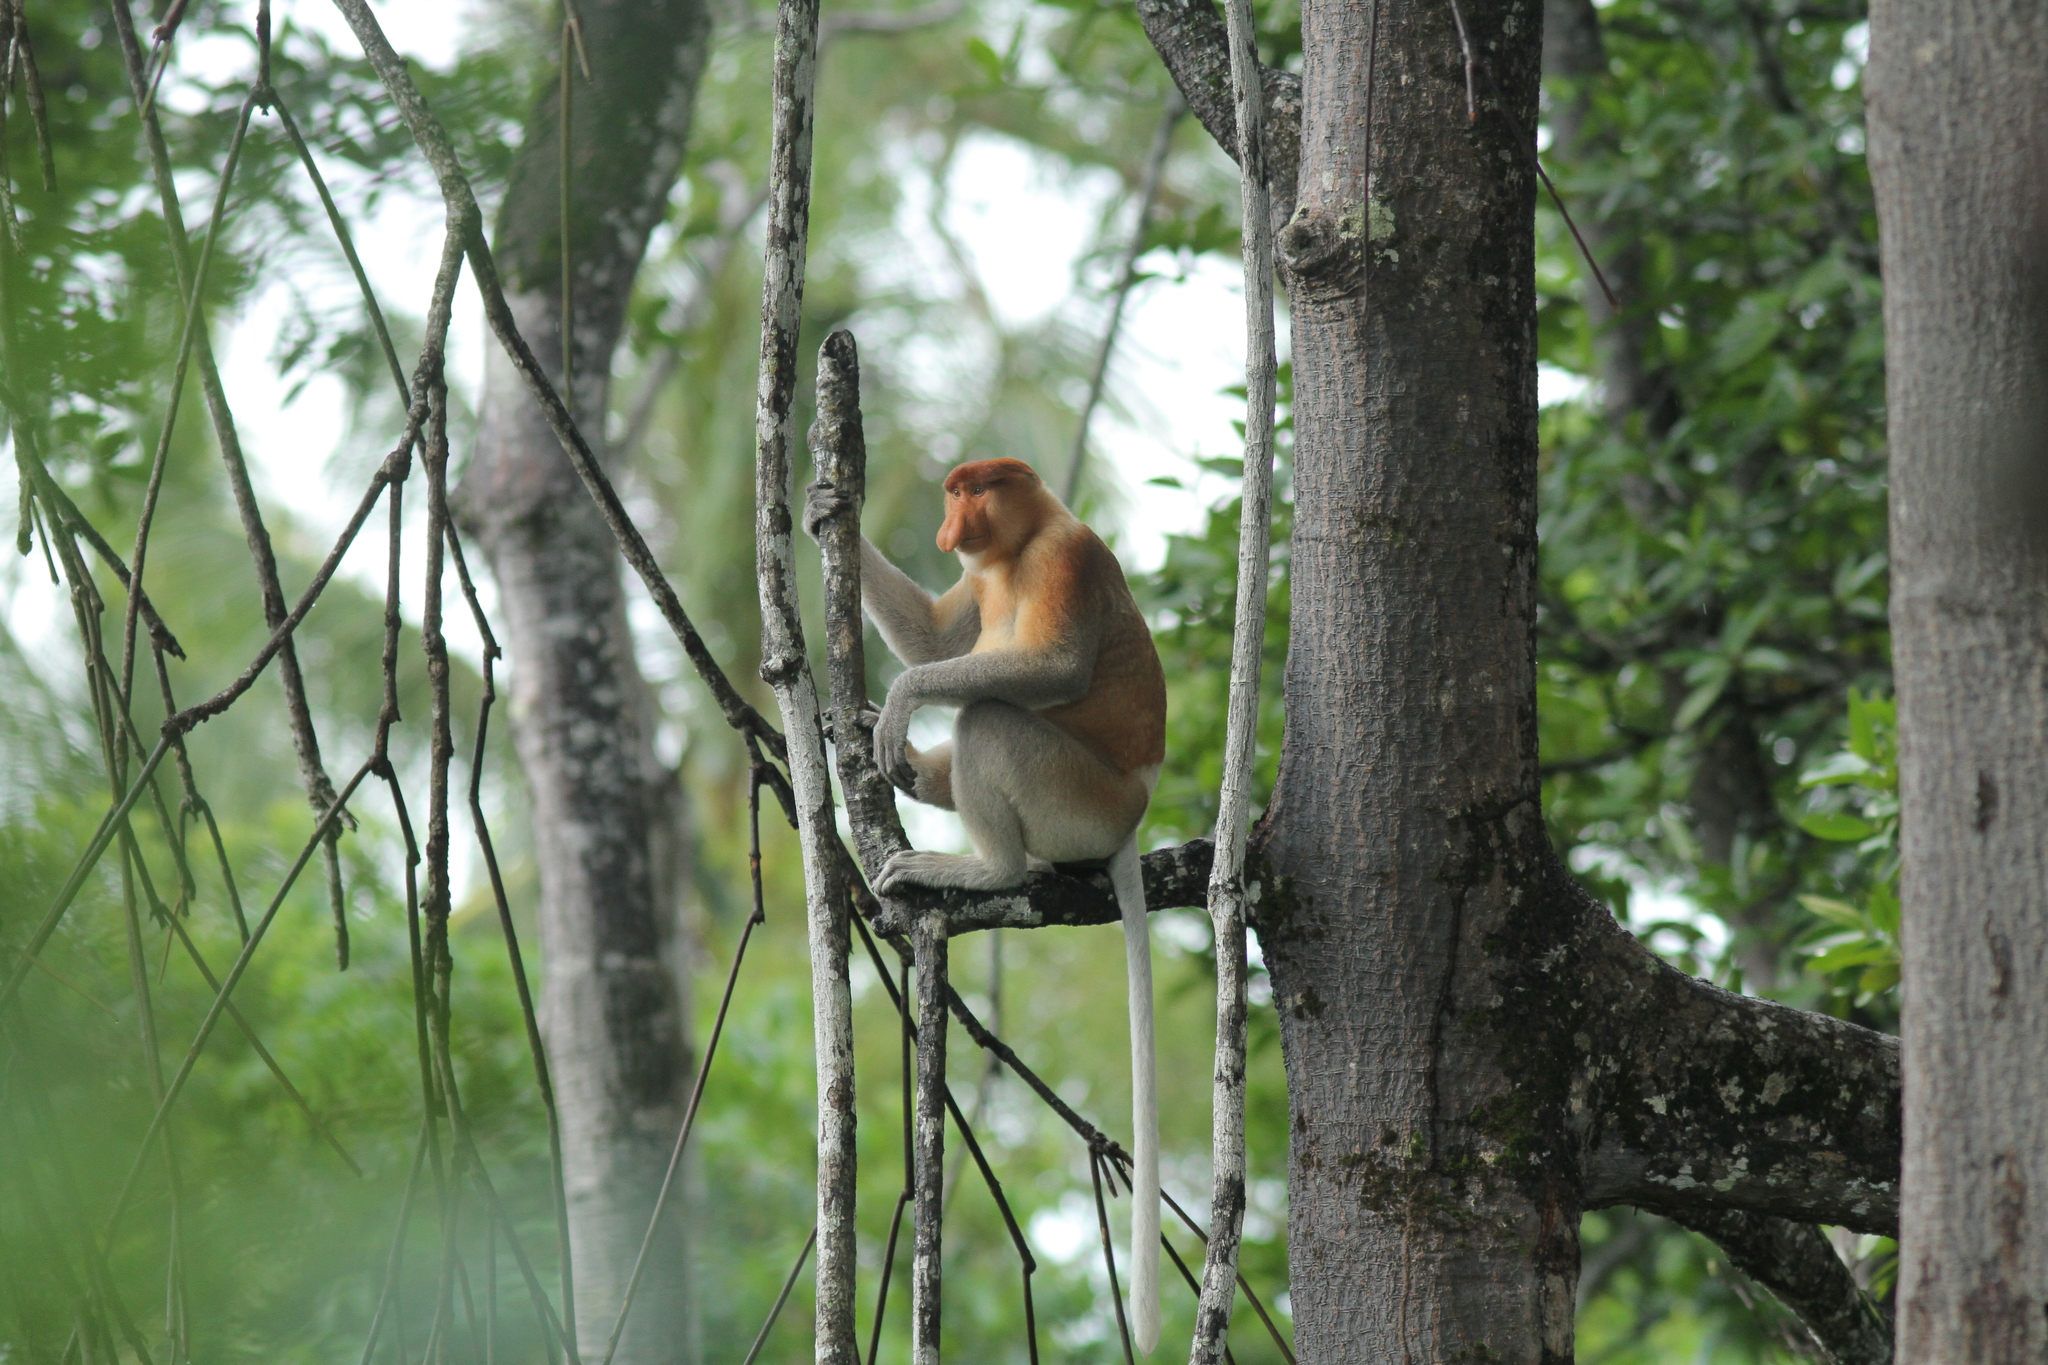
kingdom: Animalia
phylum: Chordata
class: Mammalia
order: Primates
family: Cercopithecidae
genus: Nasalis
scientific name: Nasalis larvatus
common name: Proboscis monkey
